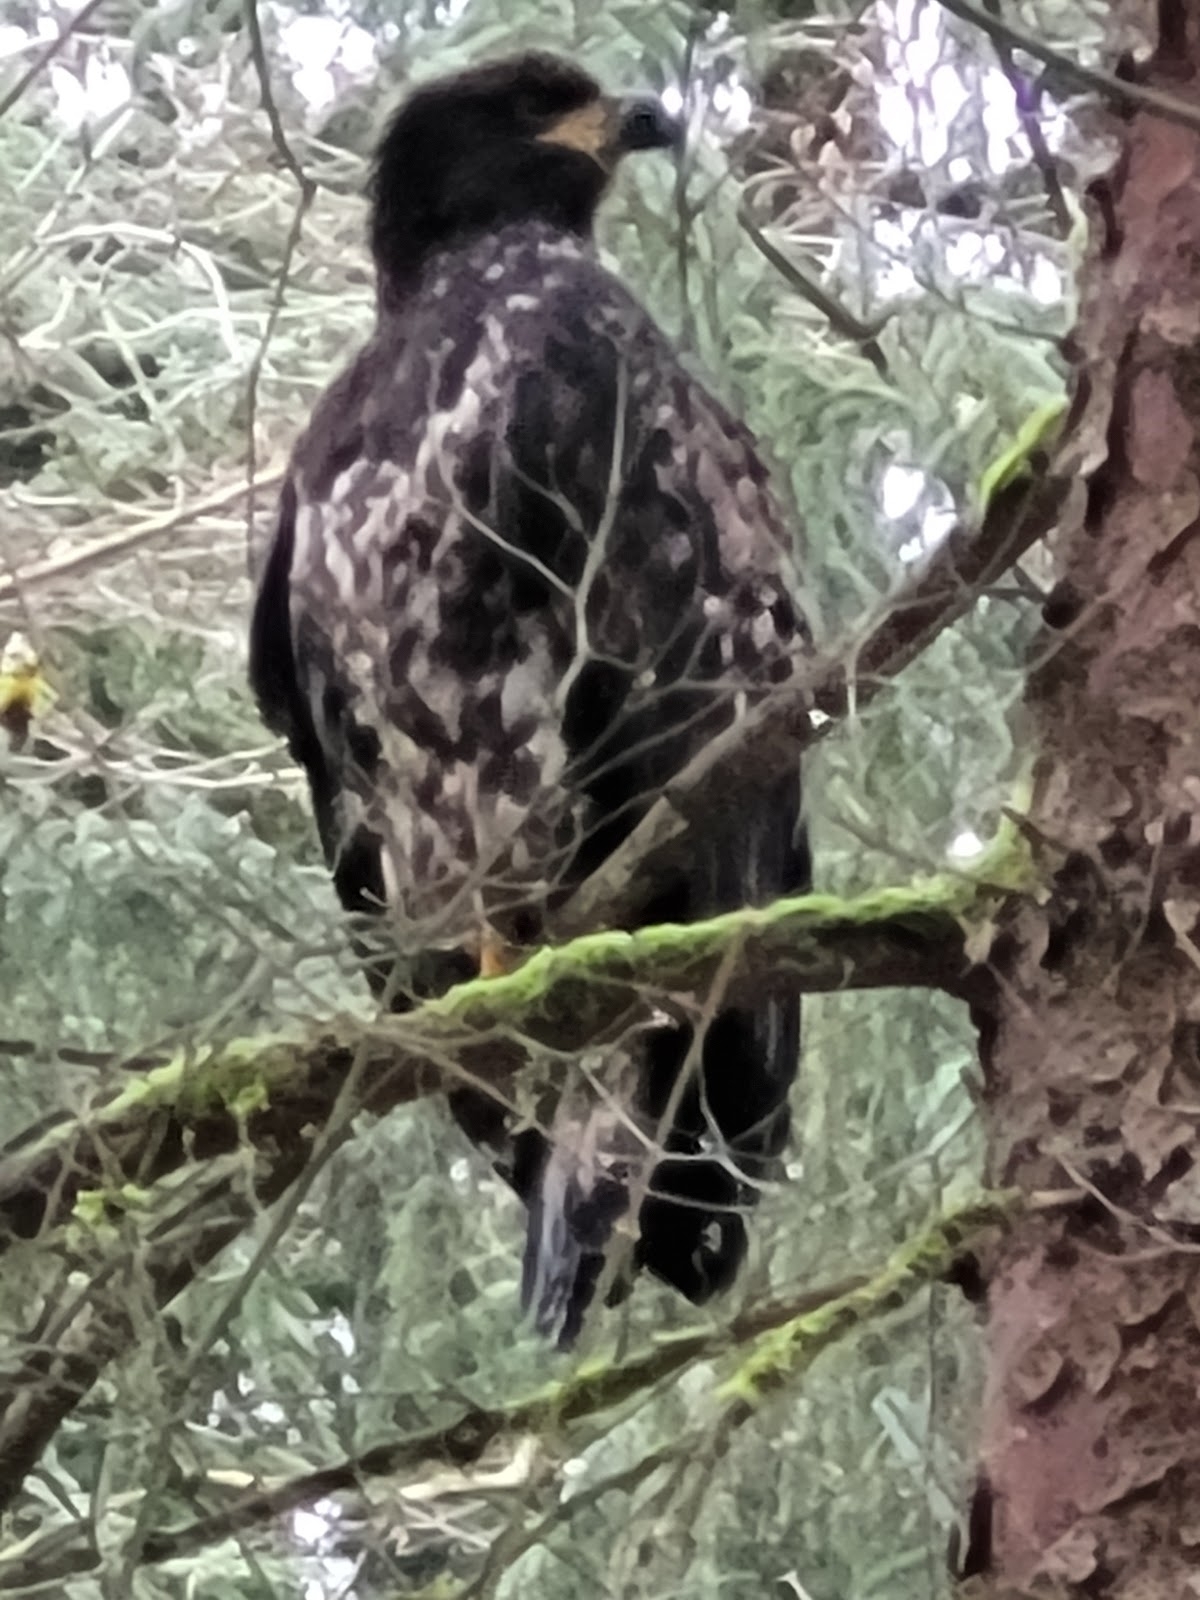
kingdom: Animalia
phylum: Chordata
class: Aves
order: Accipitriformes
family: Accipitridae
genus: Haliaeetus
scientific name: Haliaeetus leucocephalus
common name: Bald eagle
